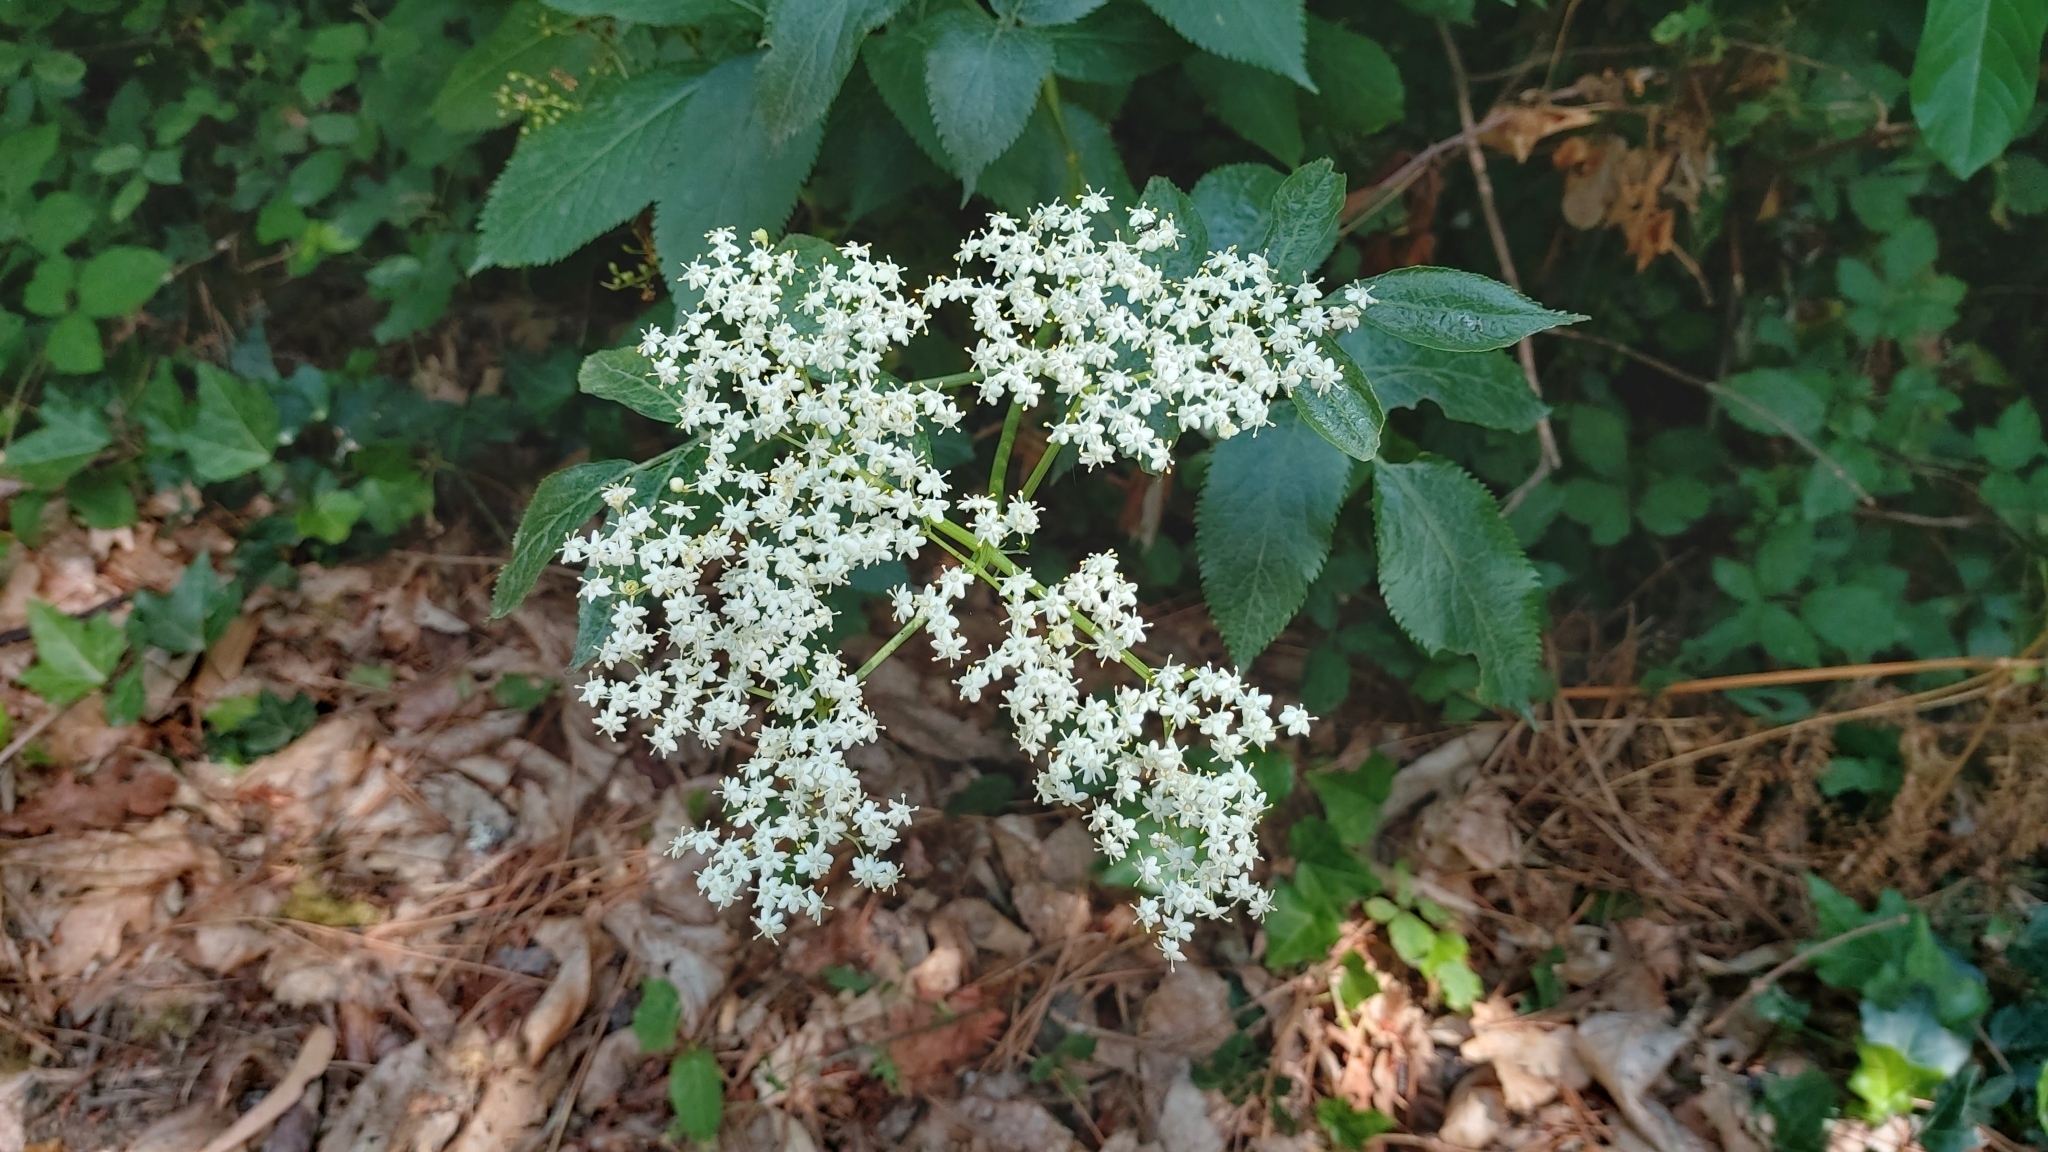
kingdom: Plantae
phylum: Tracheophyta
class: Magnoliopsida
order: Dipsacales
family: Viburnaceae
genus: Sambucus
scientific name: Sambucus nigra
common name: Elder
